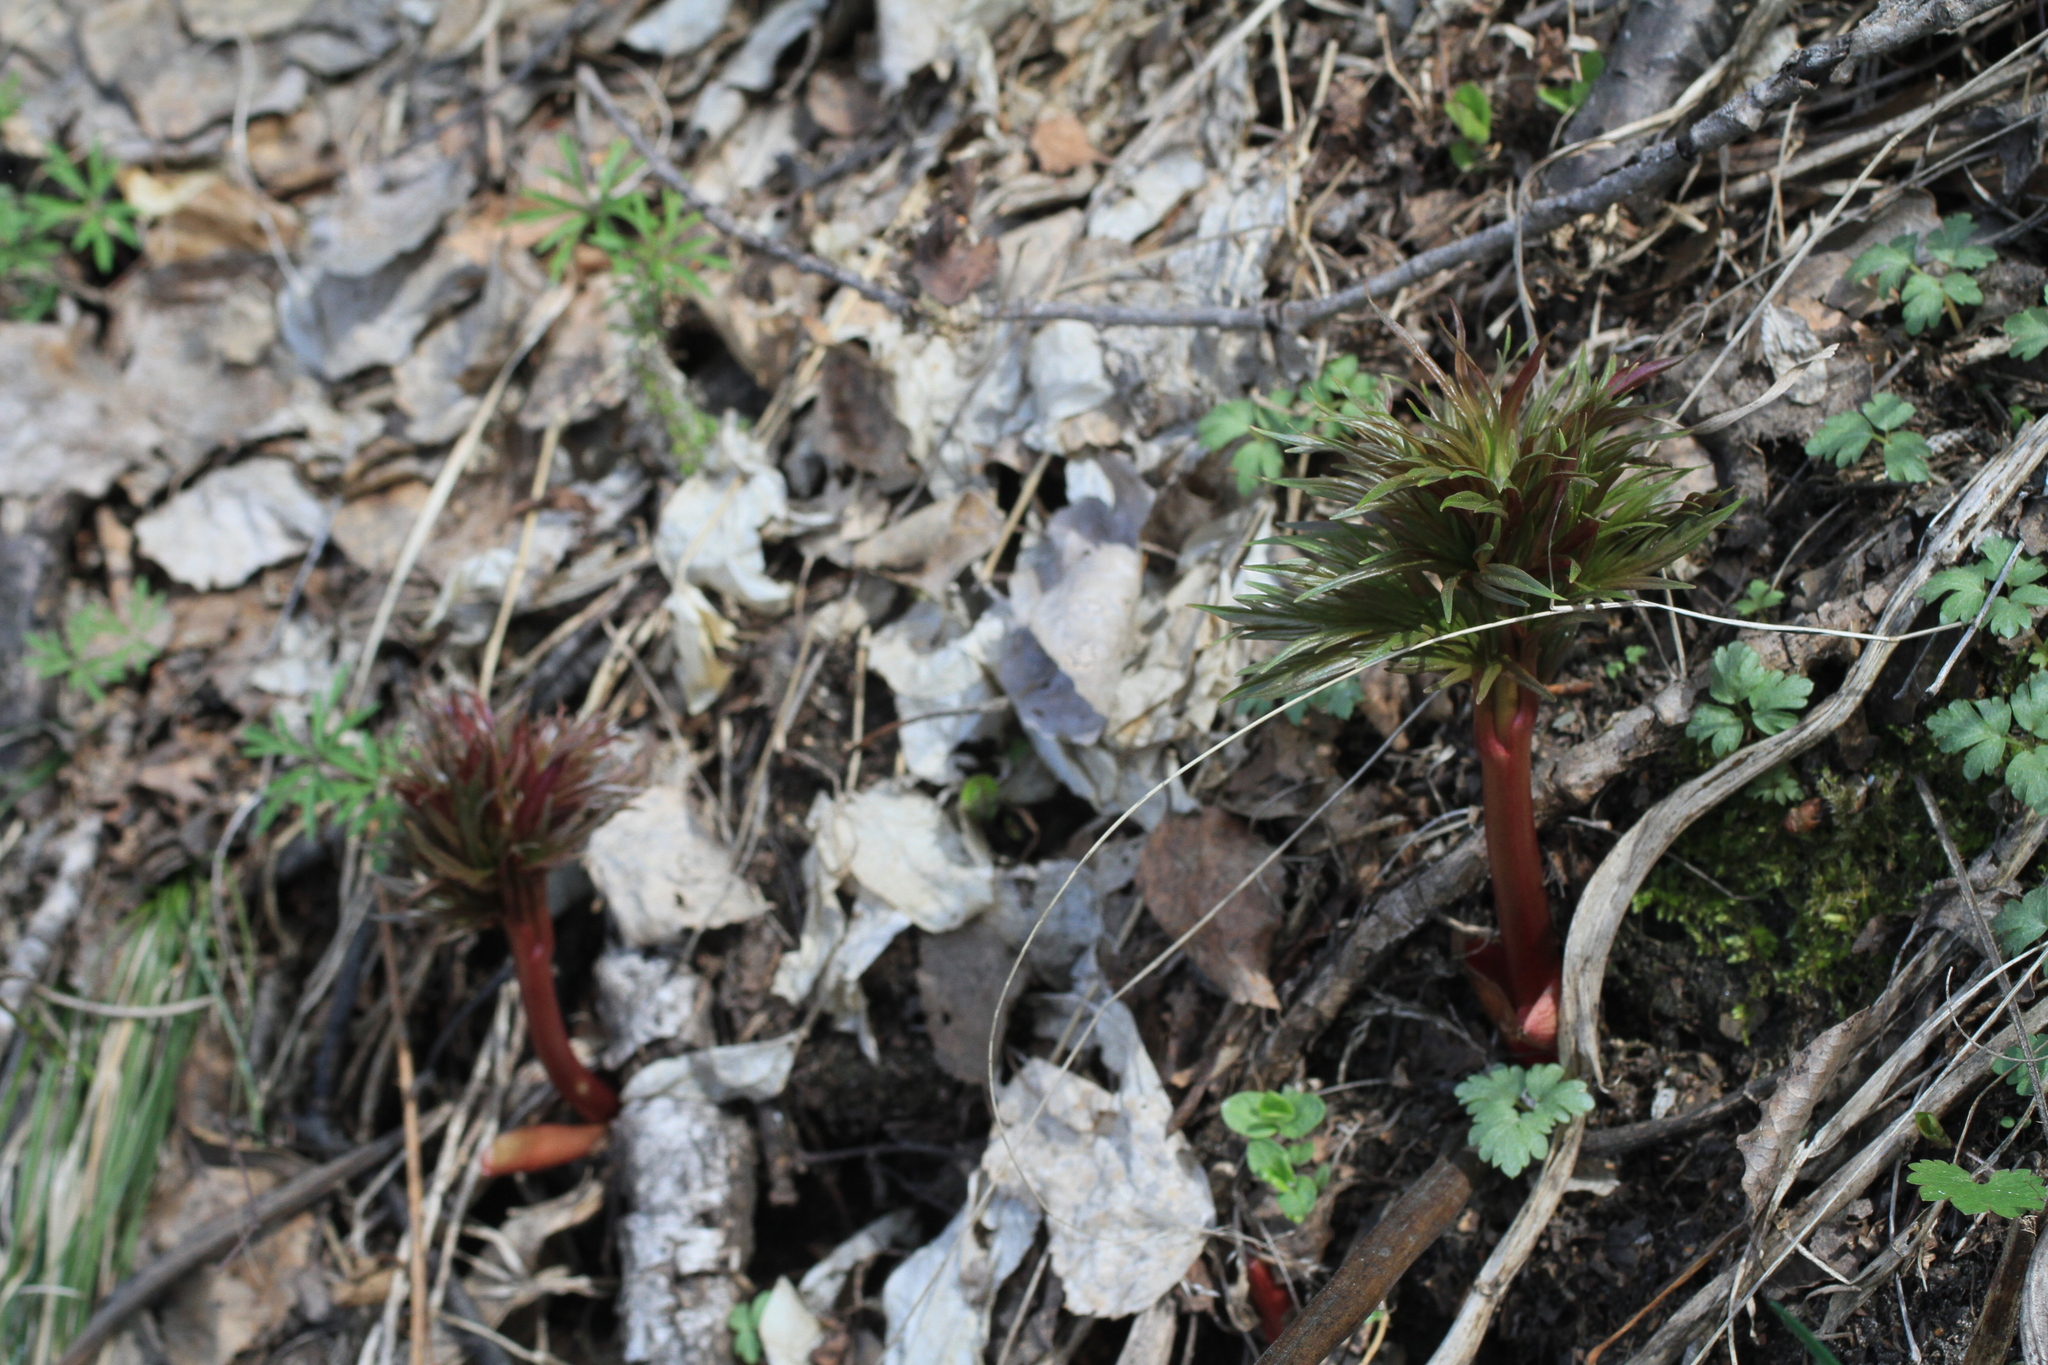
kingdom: Plantae
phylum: Tracheophyta
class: Magnoliopsida
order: Saxifragales
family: Paeoniaceae
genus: Paeonia
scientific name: Paeonia anomala
